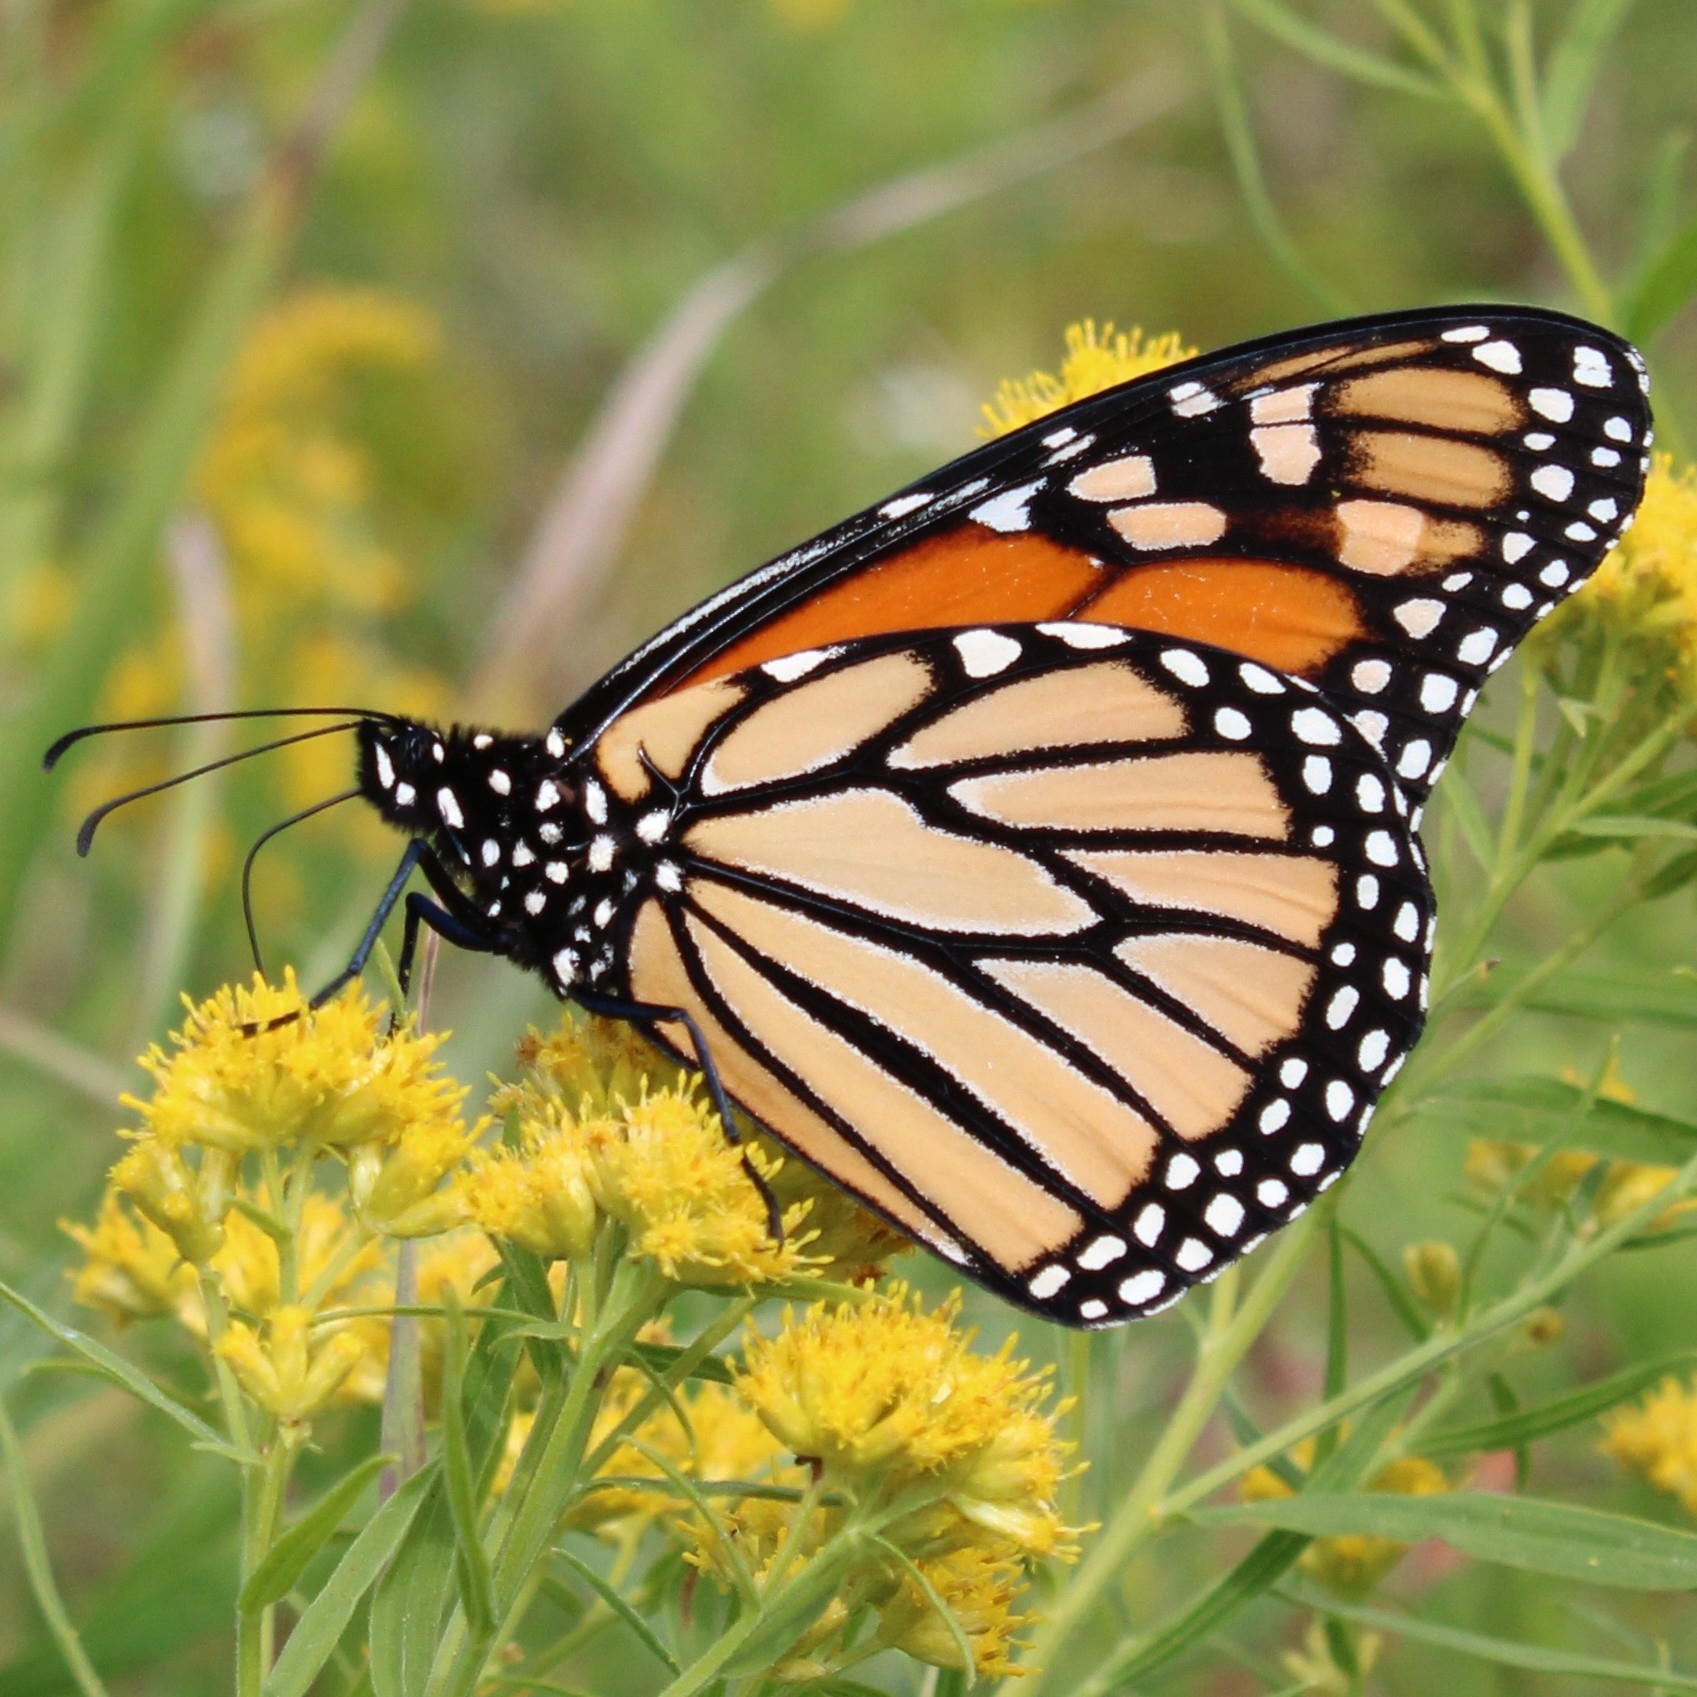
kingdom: Animalia
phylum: Arthropoda
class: Insecta
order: Lepidoptera
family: Nymphalidae
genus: Danaus
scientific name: Danaus plexippus
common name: Monarch
